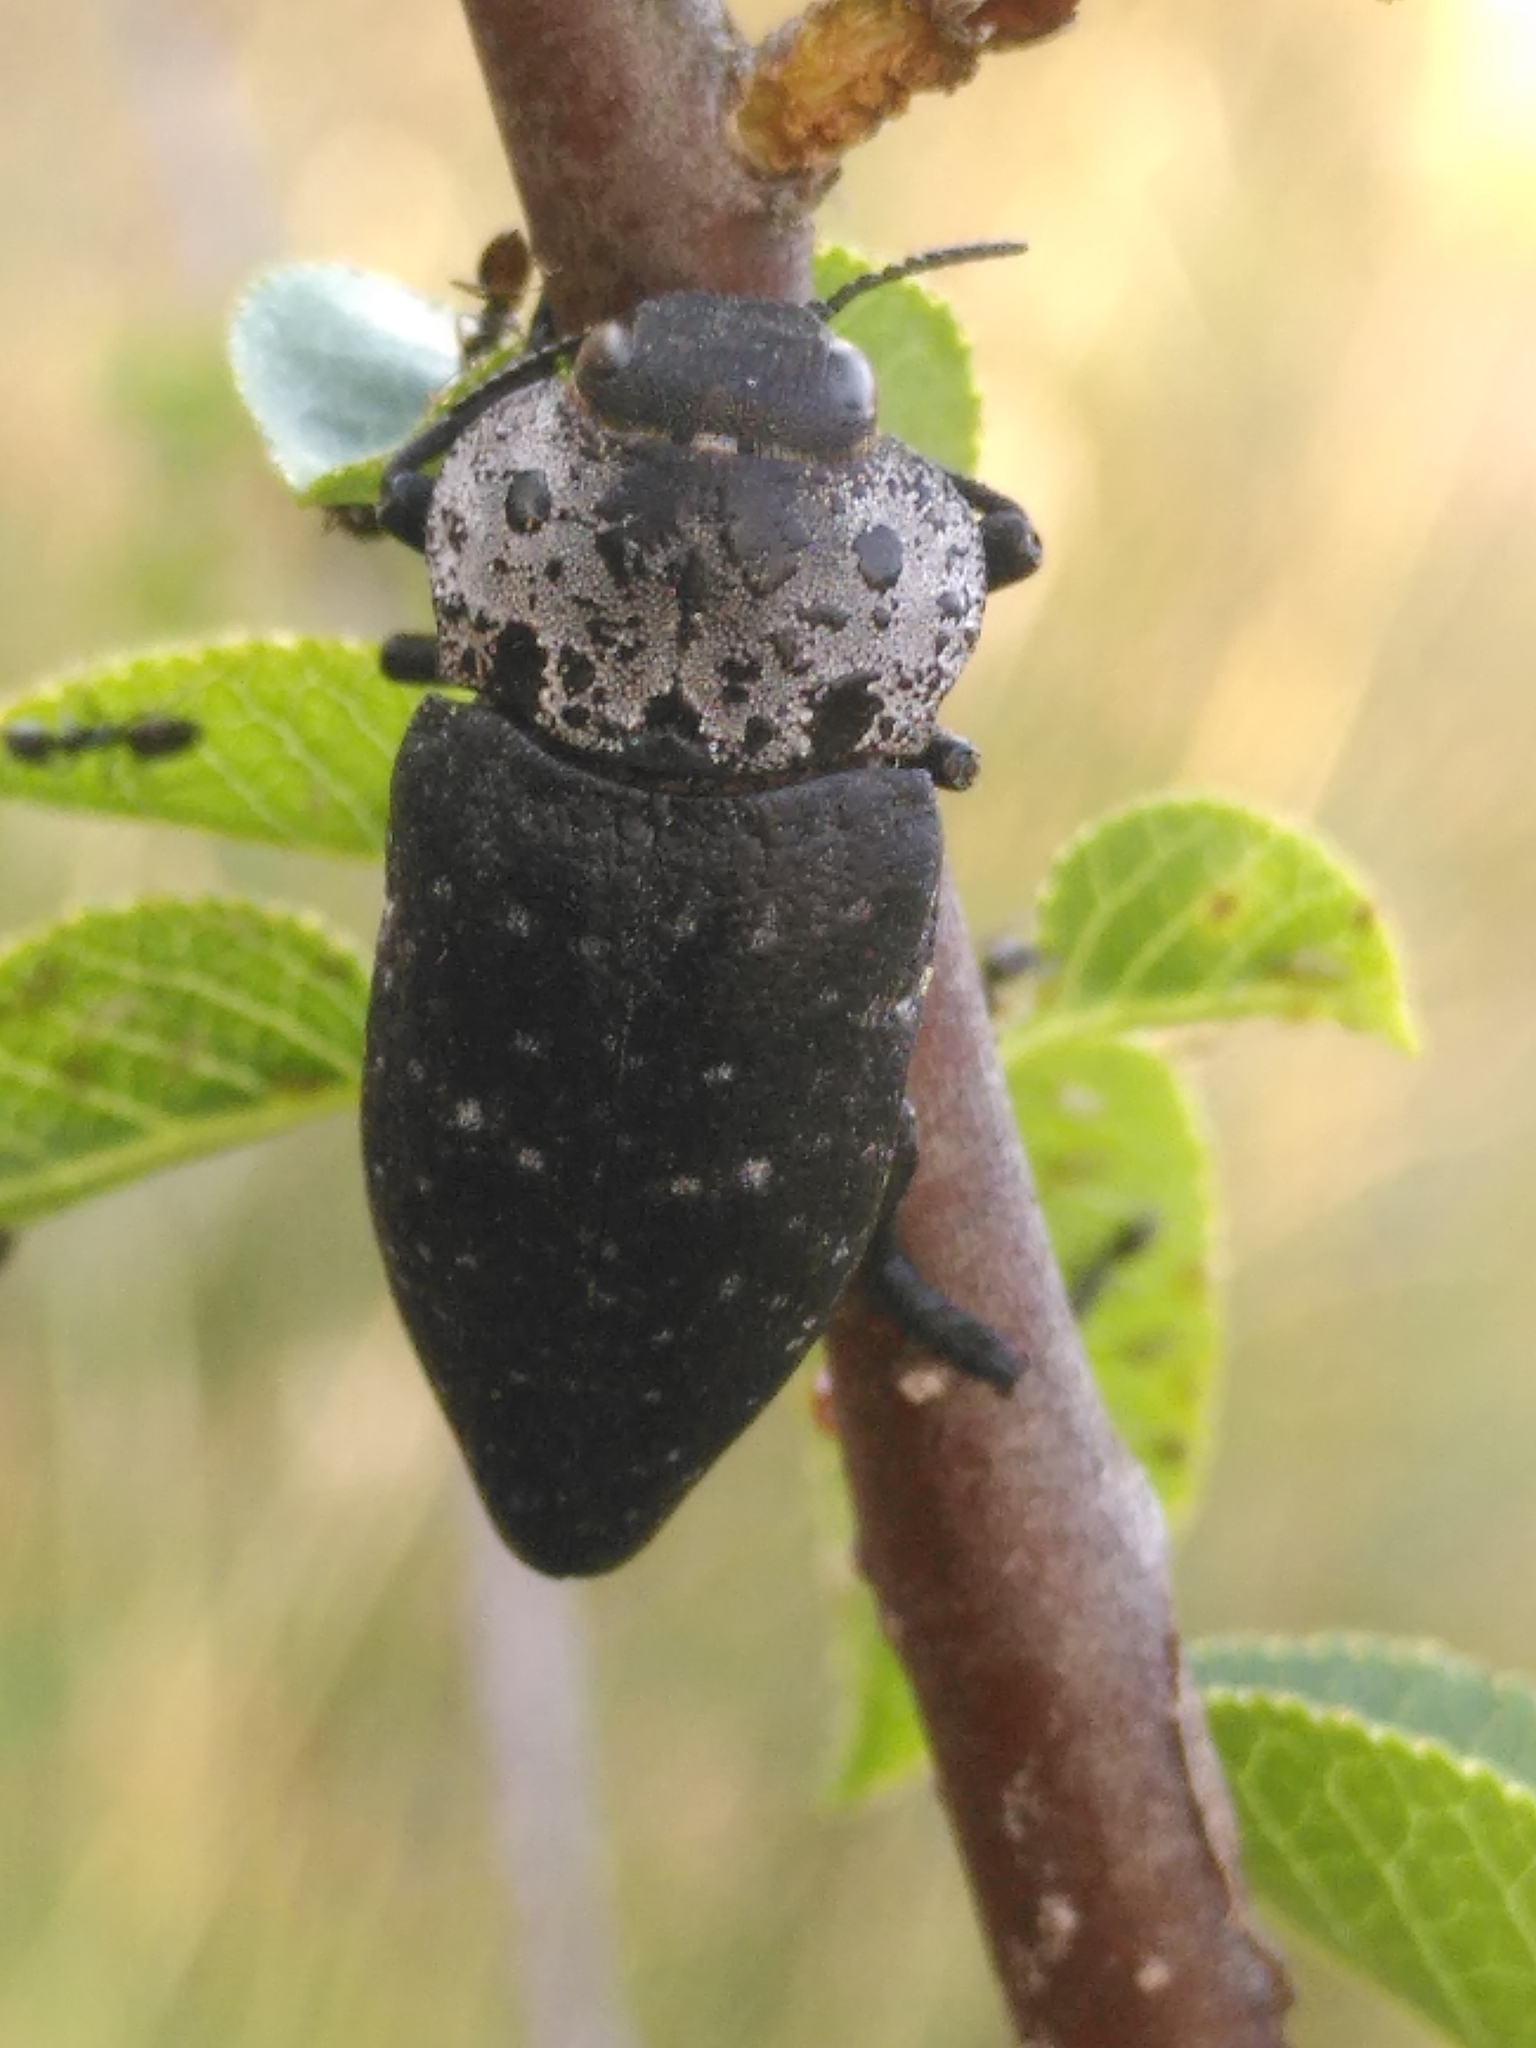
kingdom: Animalia
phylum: Arthropoda
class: Insecta
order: Coleoptera
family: Buprestidae
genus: Capnodis
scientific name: Capnodis tenebrionis
